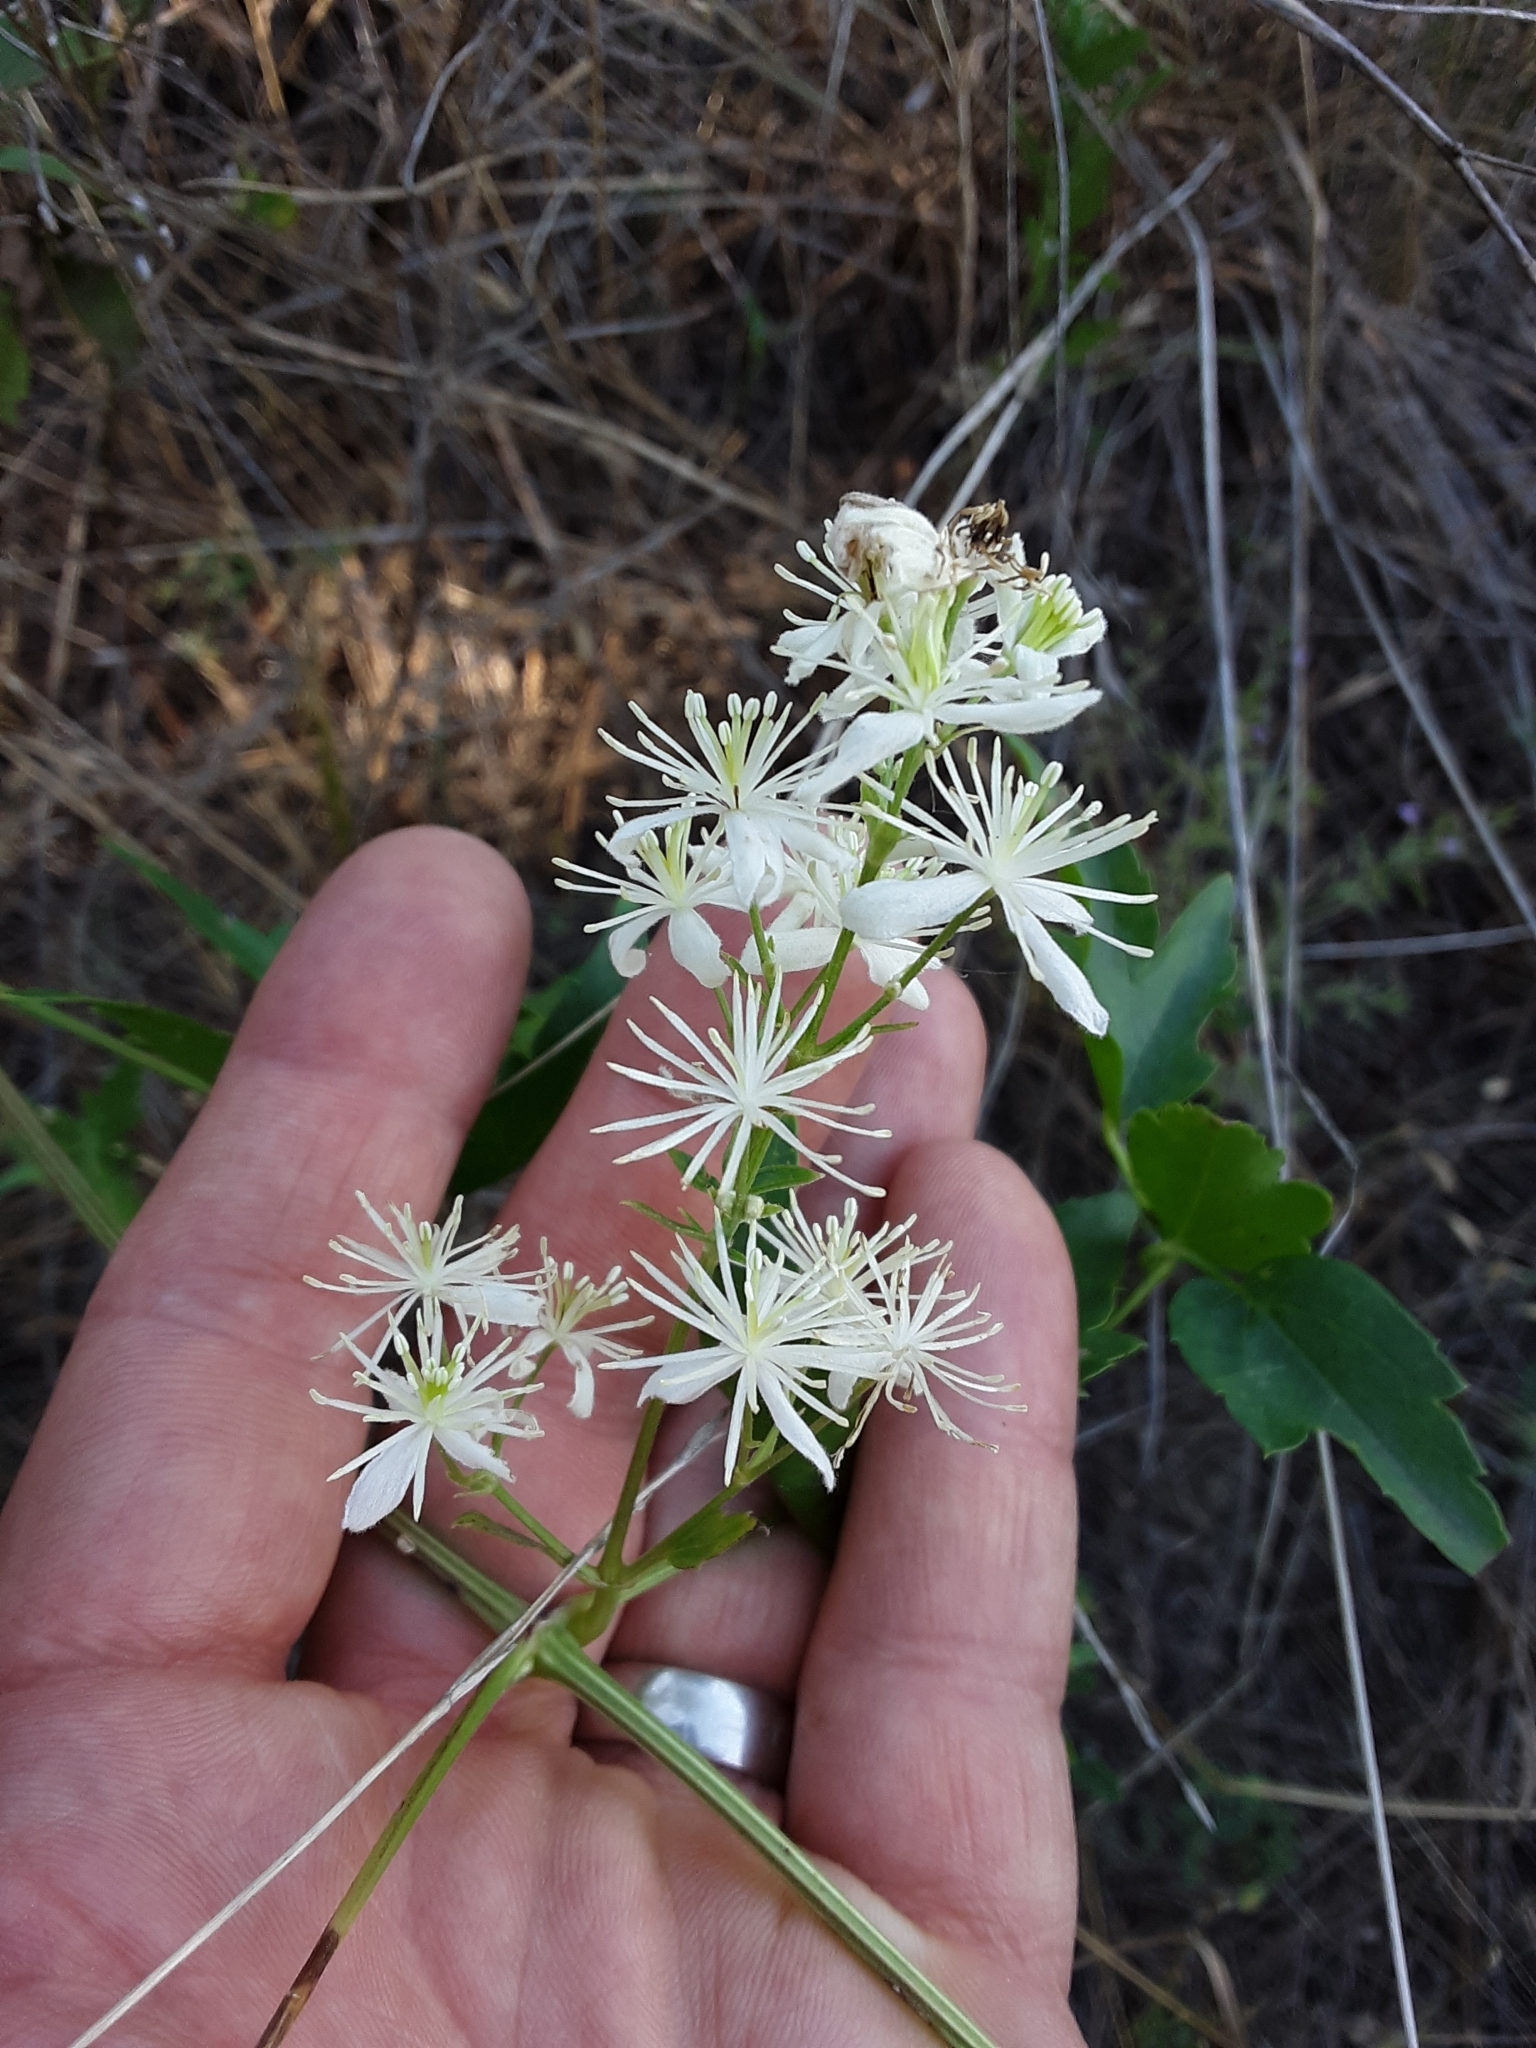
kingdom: Plantae
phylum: Tracheophyta
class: Magnoliopsida
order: Ranunculales
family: Ranunculaceae
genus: Clematis
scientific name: Clematis ligusticifolia
